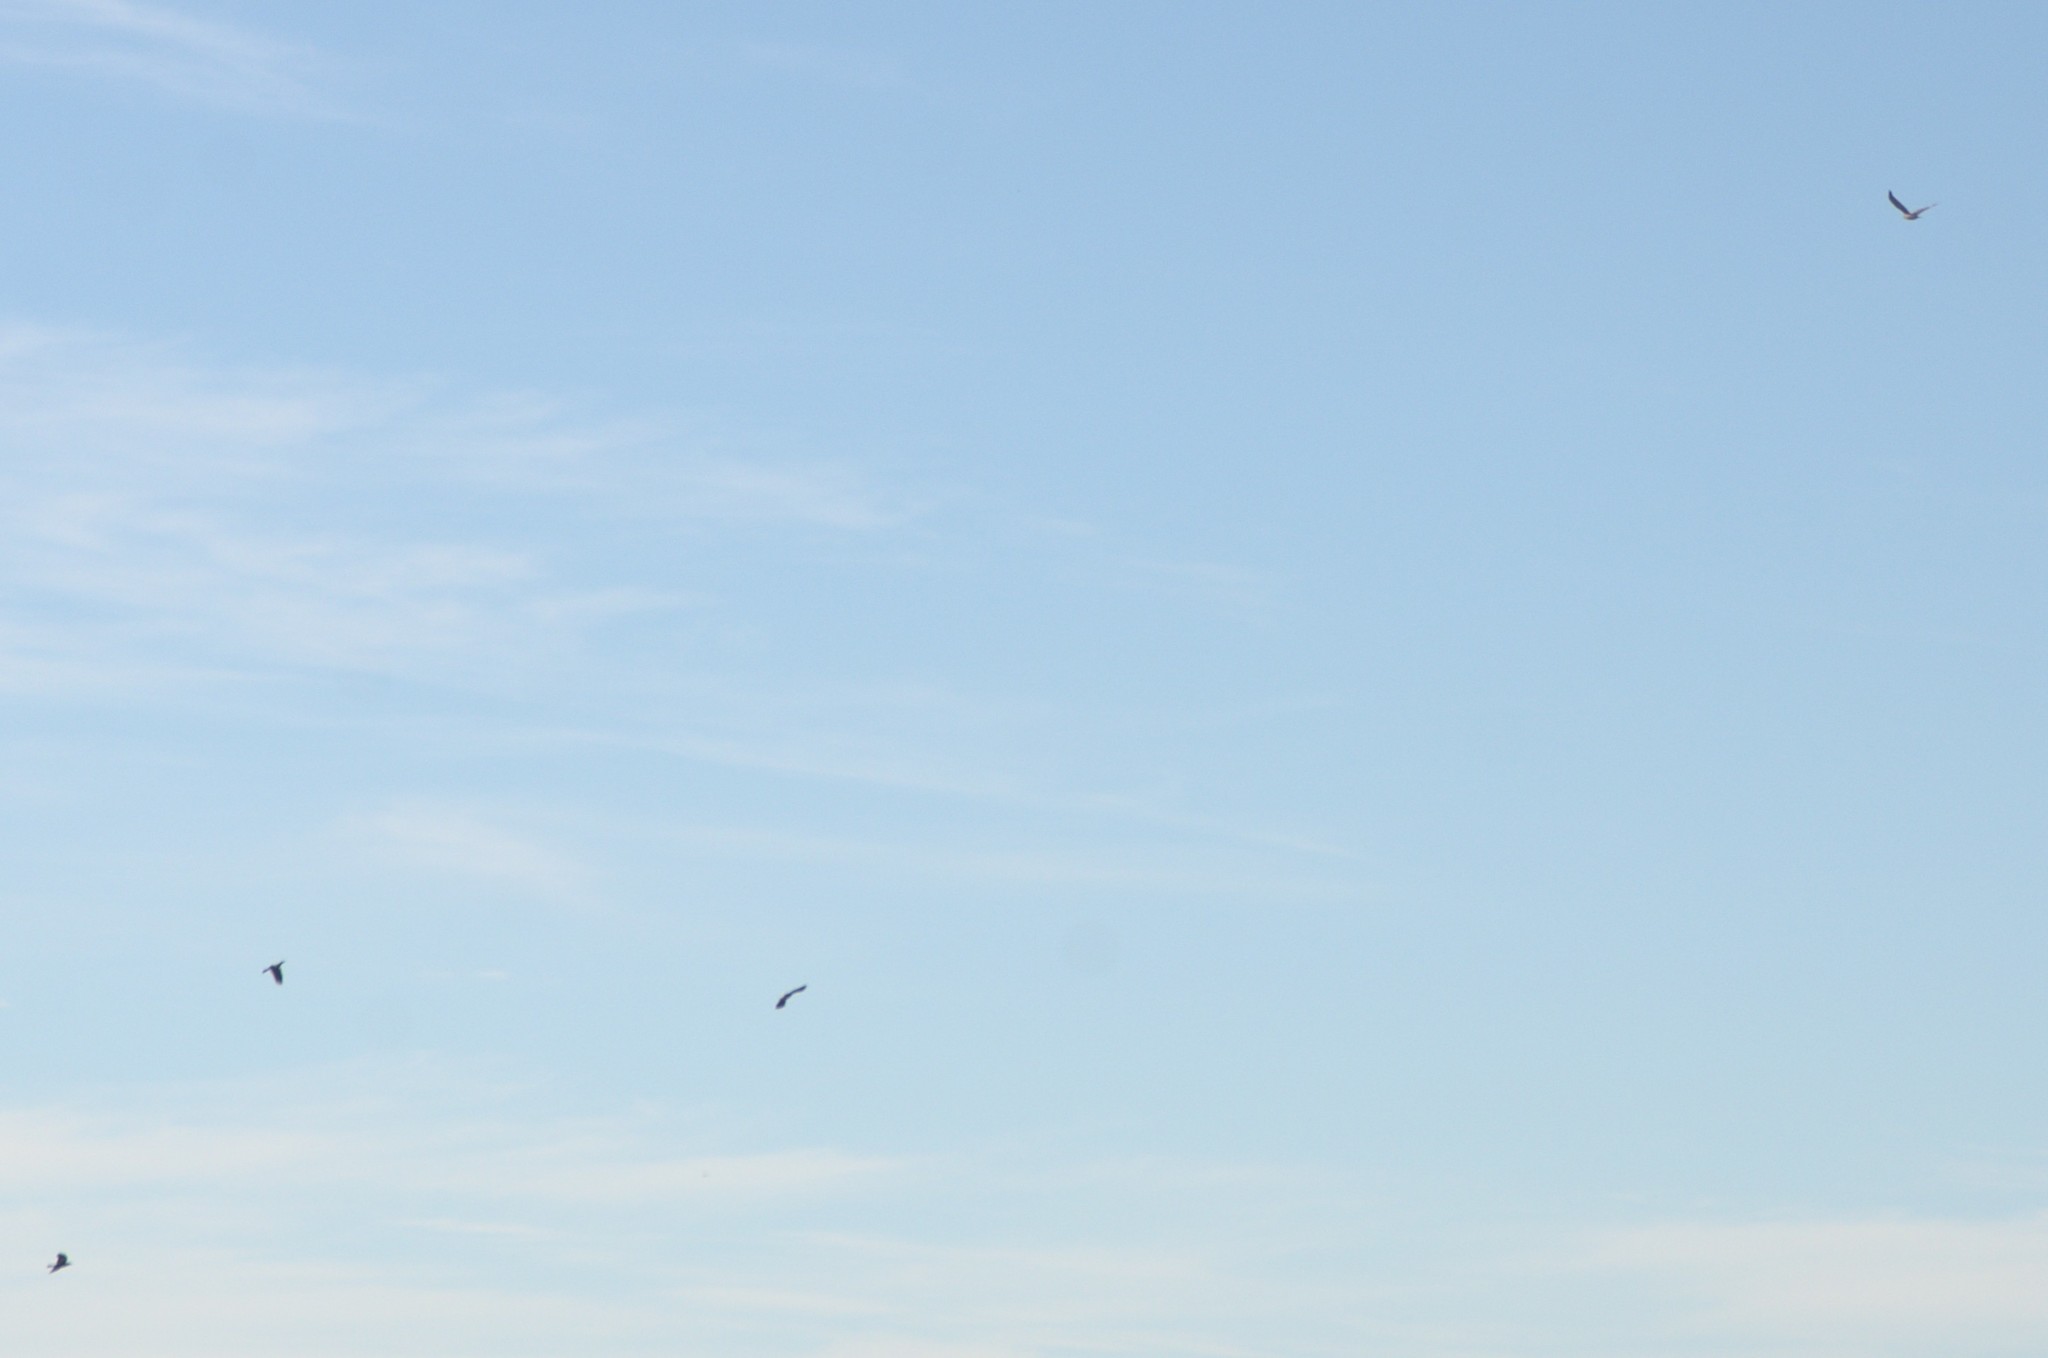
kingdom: Animalia
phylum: Chordata
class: Aves
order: Passeriformes
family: Cracticidae
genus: Gymnorhina
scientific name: Gymnorhina tibicen
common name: Australian magpie
